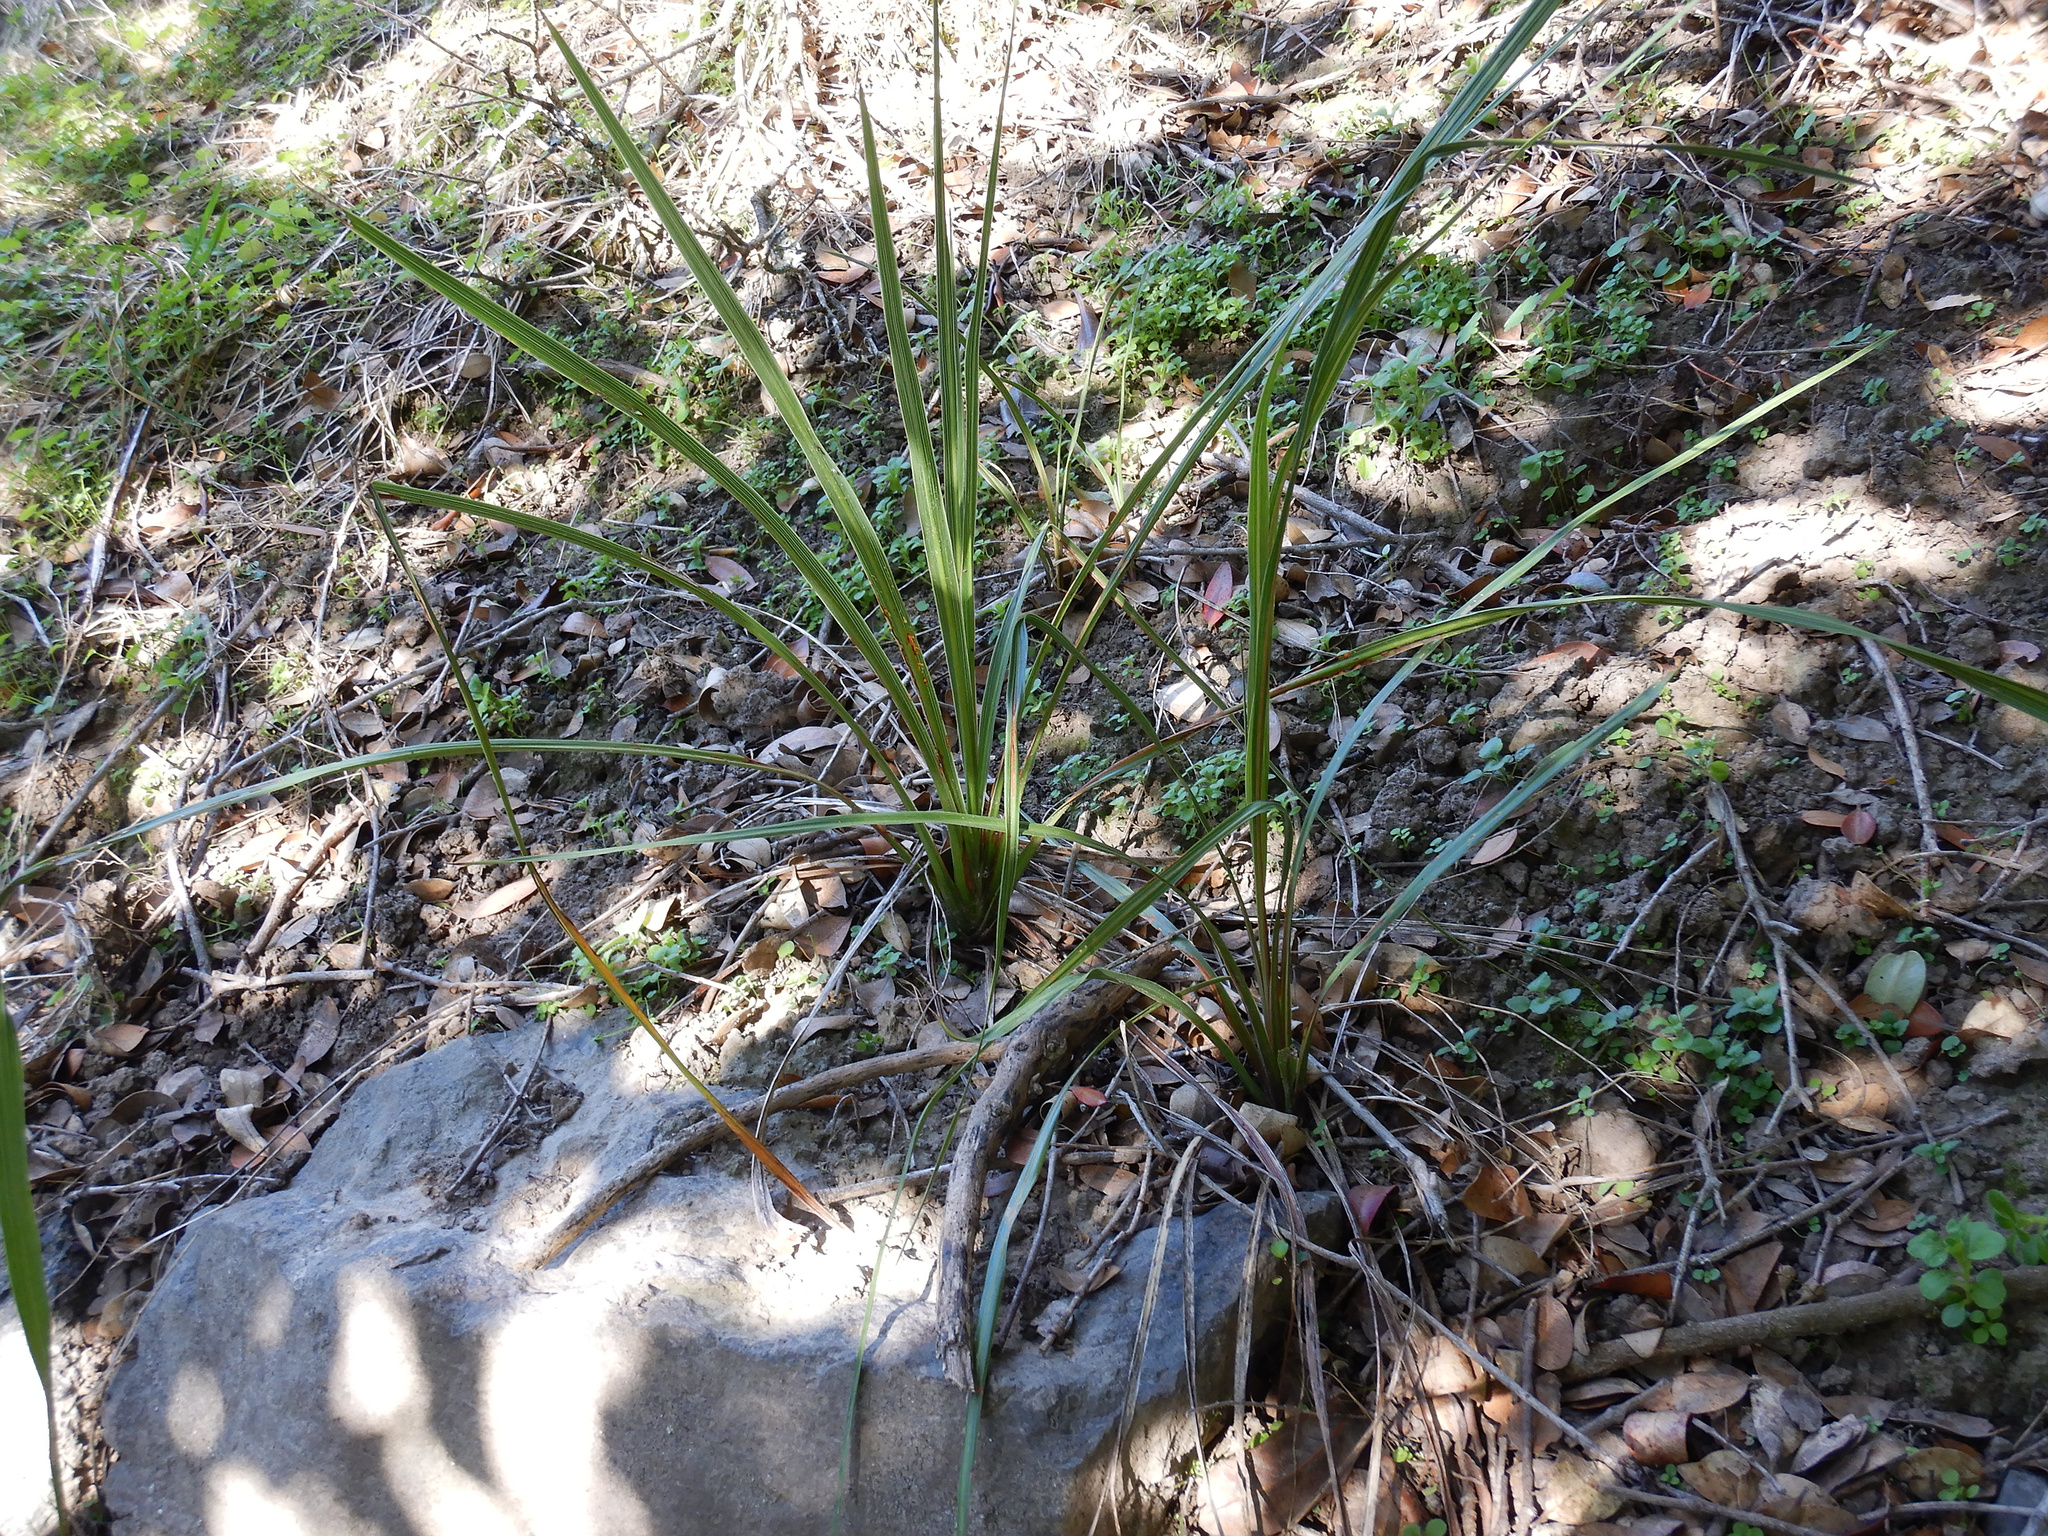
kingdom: Plantae
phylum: Tracheophyta
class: Liliopsida
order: Asparagales
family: Asparagaceae
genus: Cordyline
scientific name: Cordyline australis
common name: Cabbage-palm
